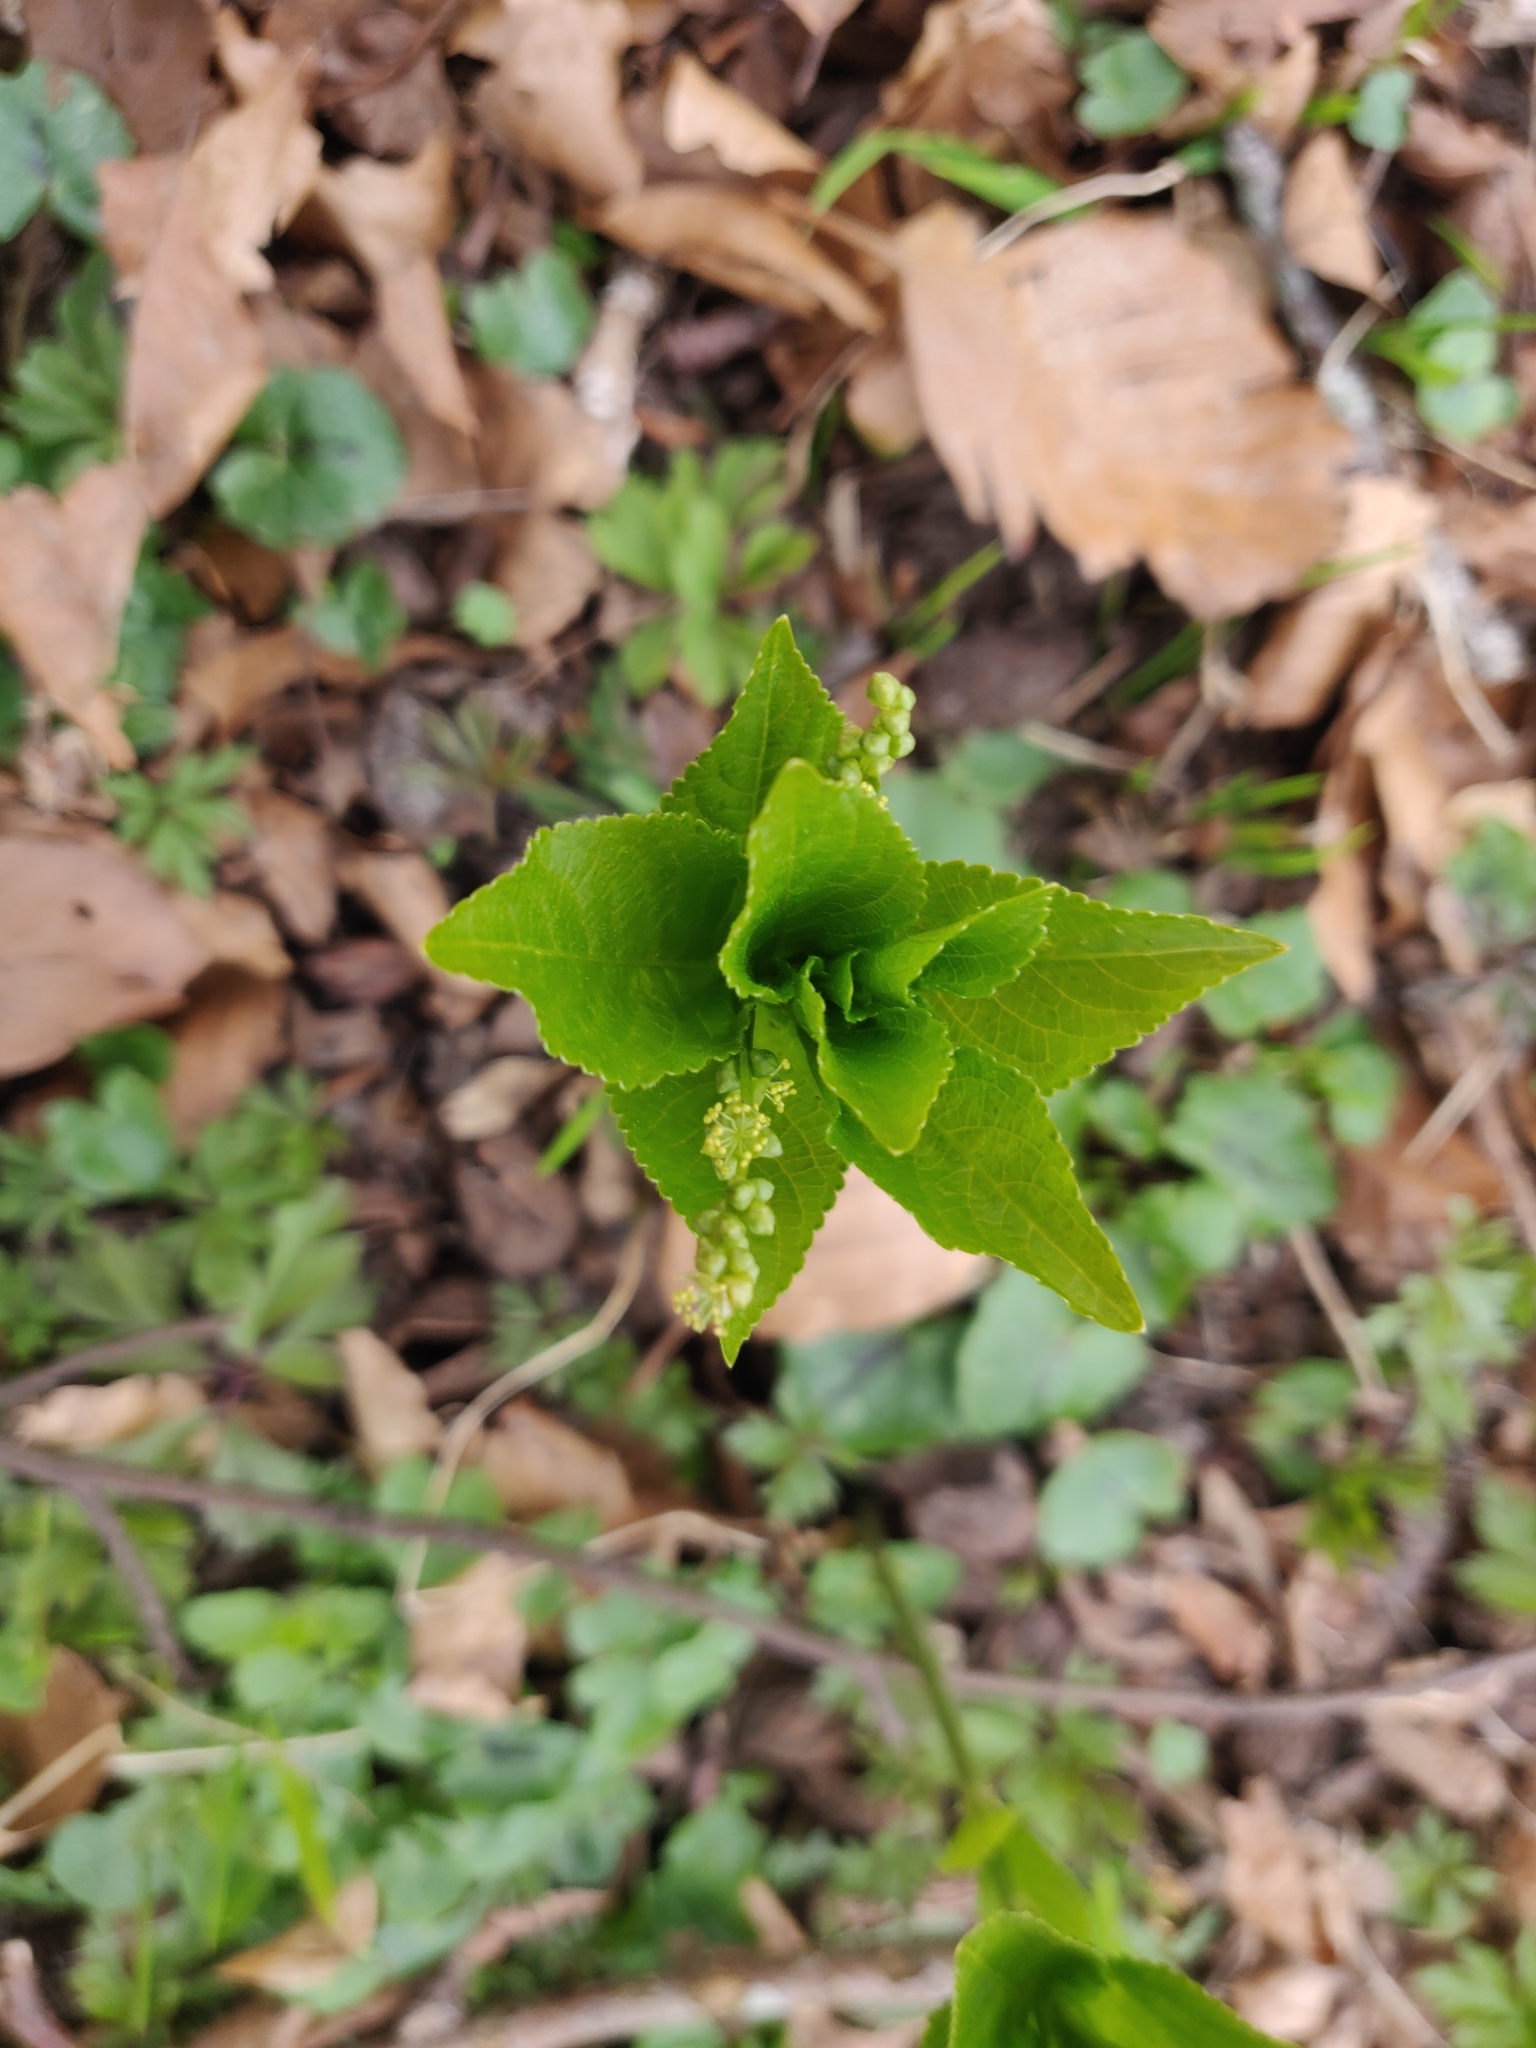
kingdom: Plantae
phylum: Tracheophyta
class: Magnoliopsida
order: Malpighiales
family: Euphorbiaceae
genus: Mercurialis
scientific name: Mercurialis perennis
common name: Dog mercury
